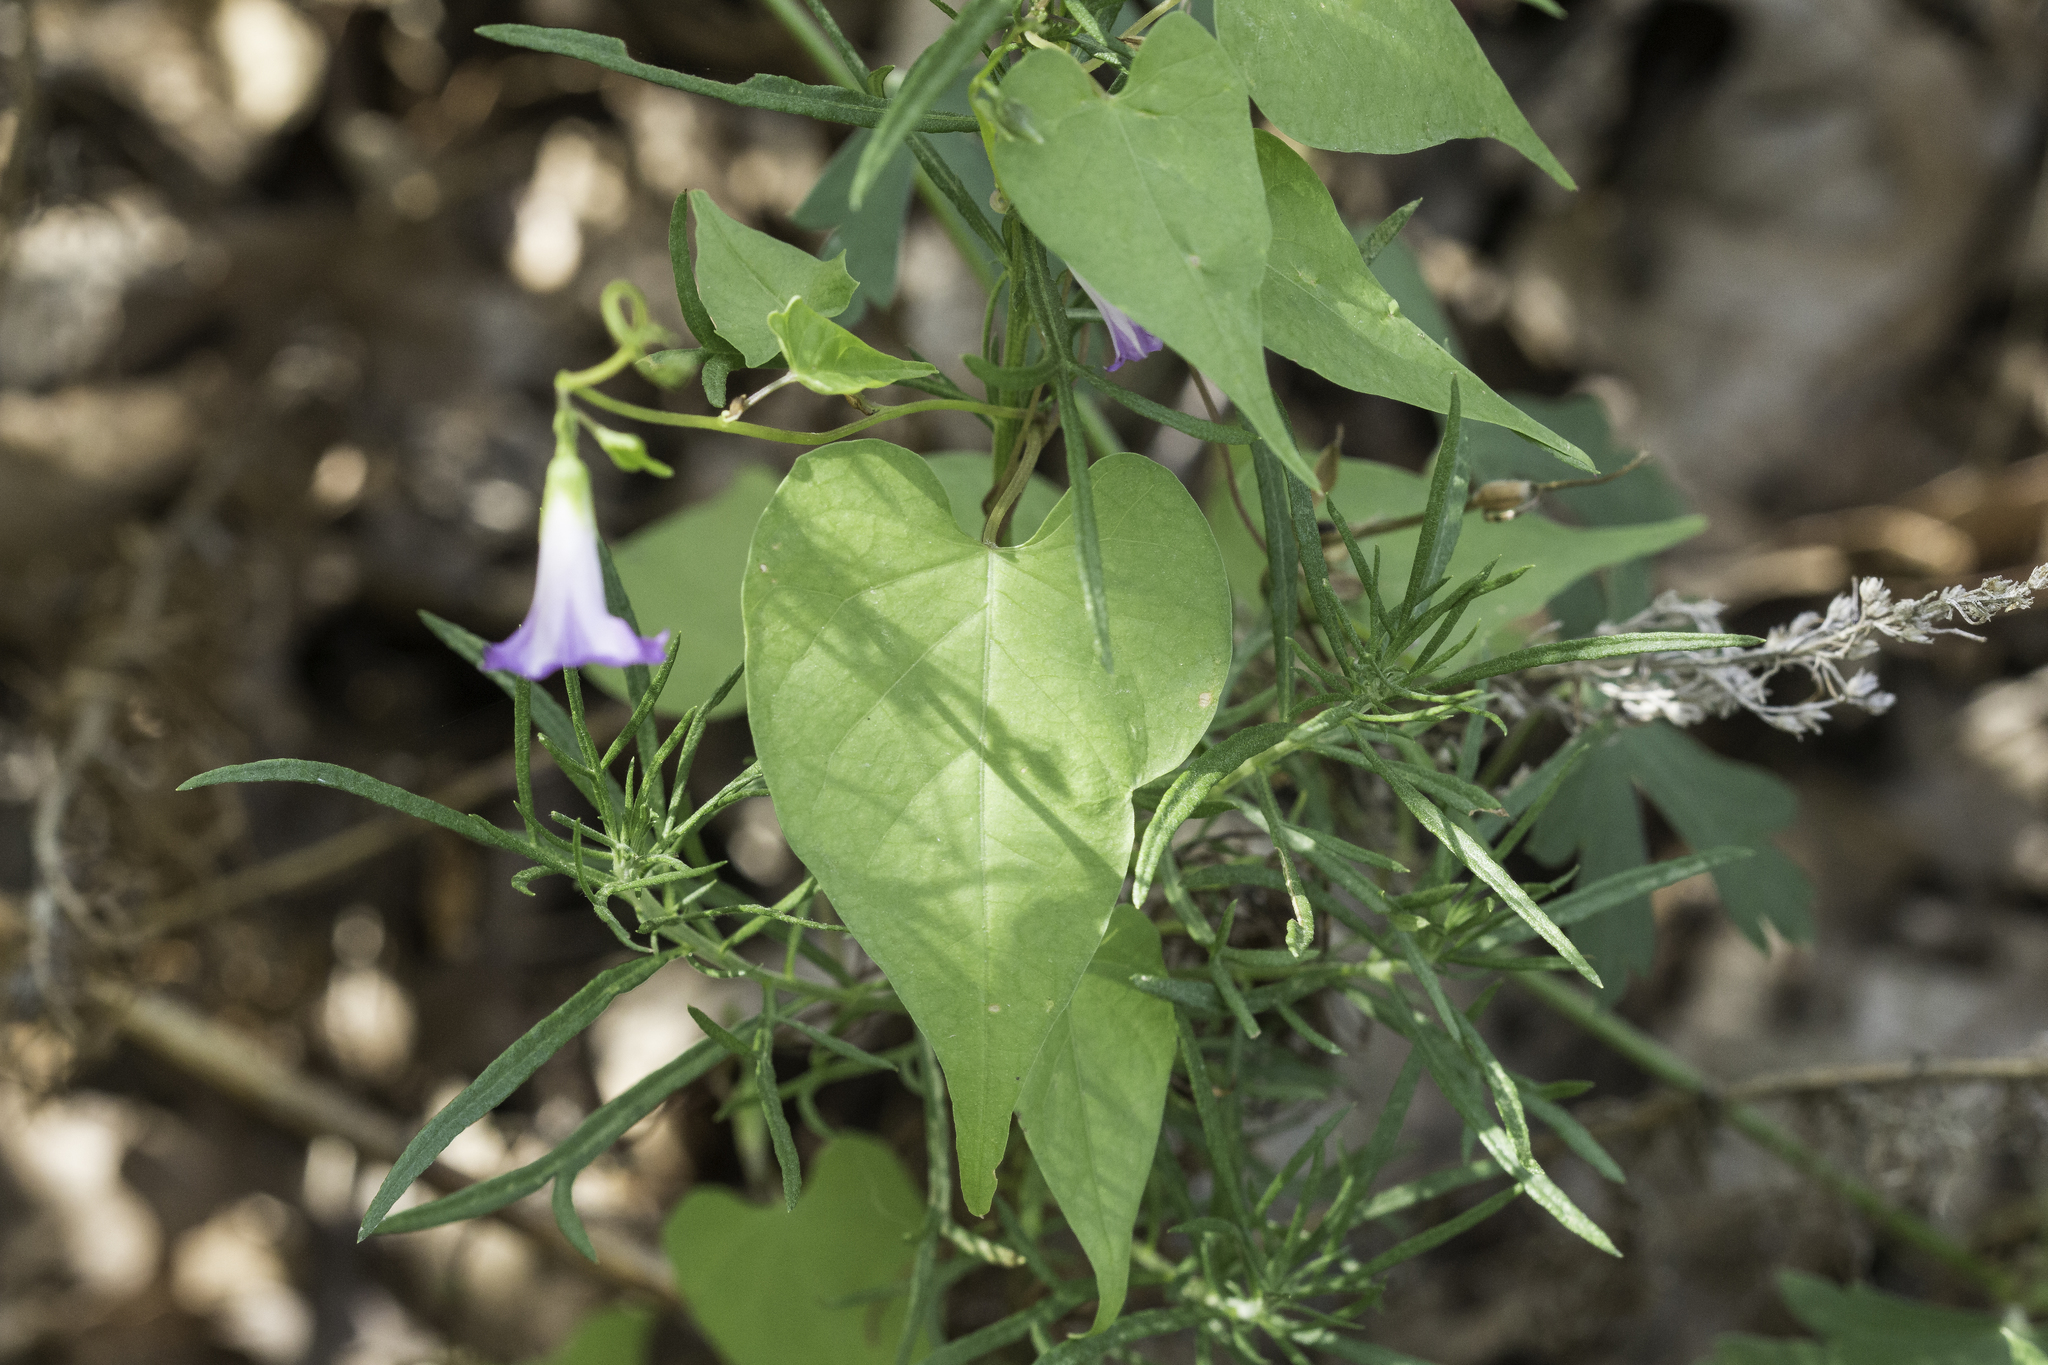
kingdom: Plantae
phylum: Tracheophyta
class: Magnoliopsida
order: Solanales
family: Convolvulaceae
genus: Ipomoea
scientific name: Ipomoea dumetorum
